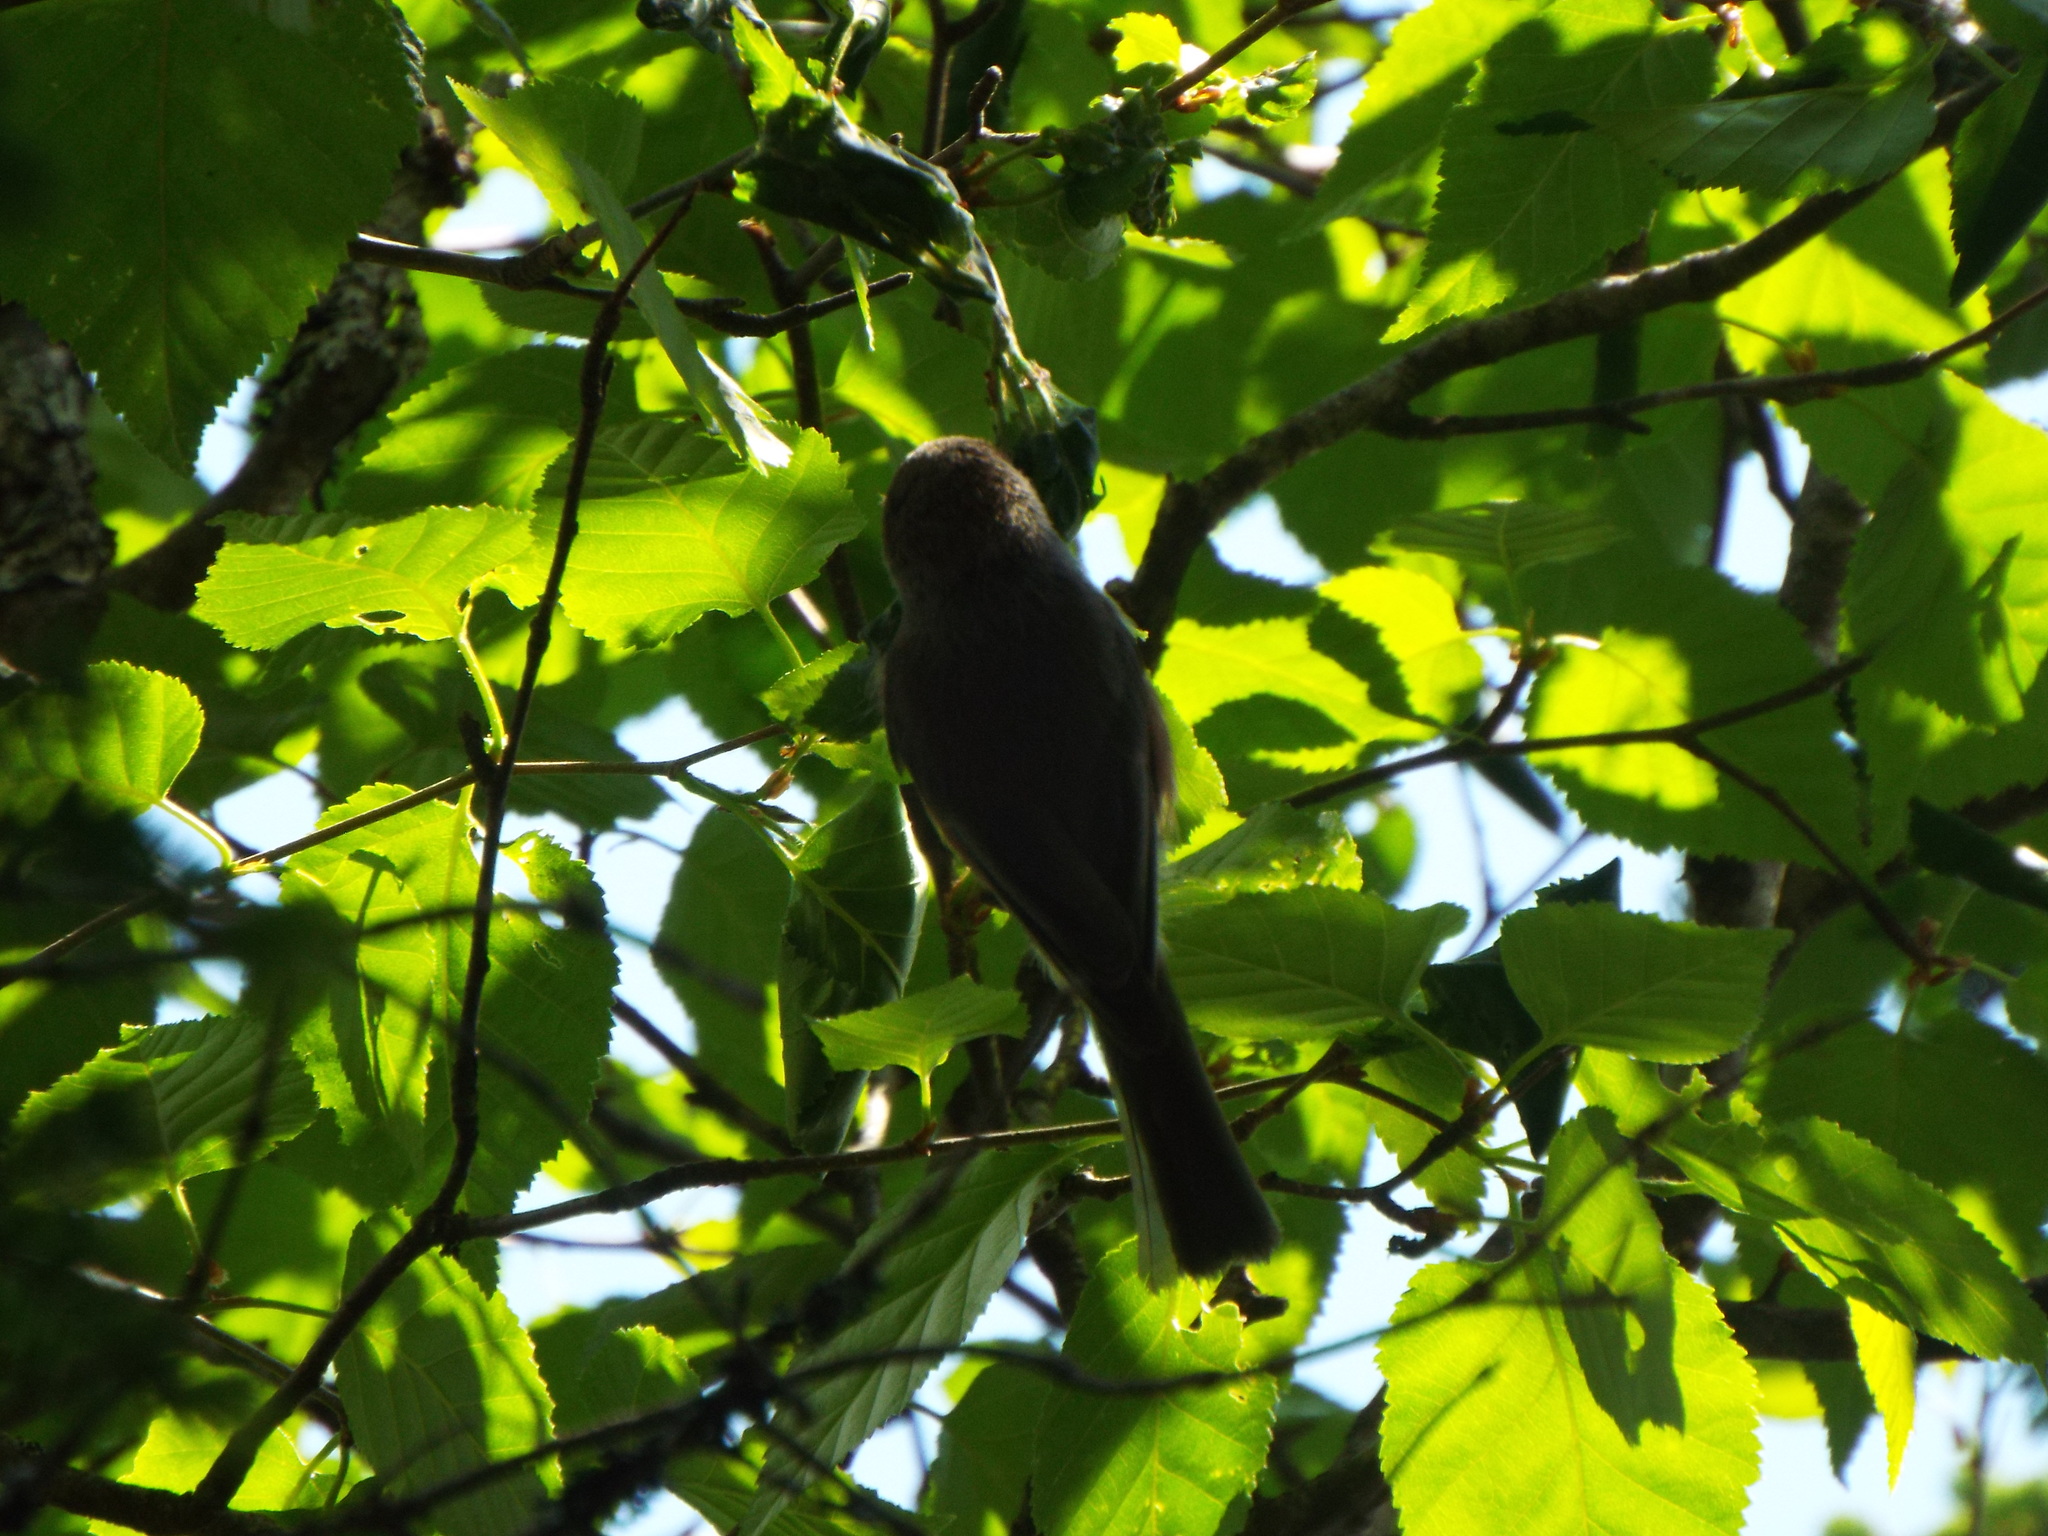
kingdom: Animalia
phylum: Chordata
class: Aves
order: Passeriformes
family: Paridae
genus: Poecile
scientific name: Poecile hudsonicus
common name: Boreal chickadee
